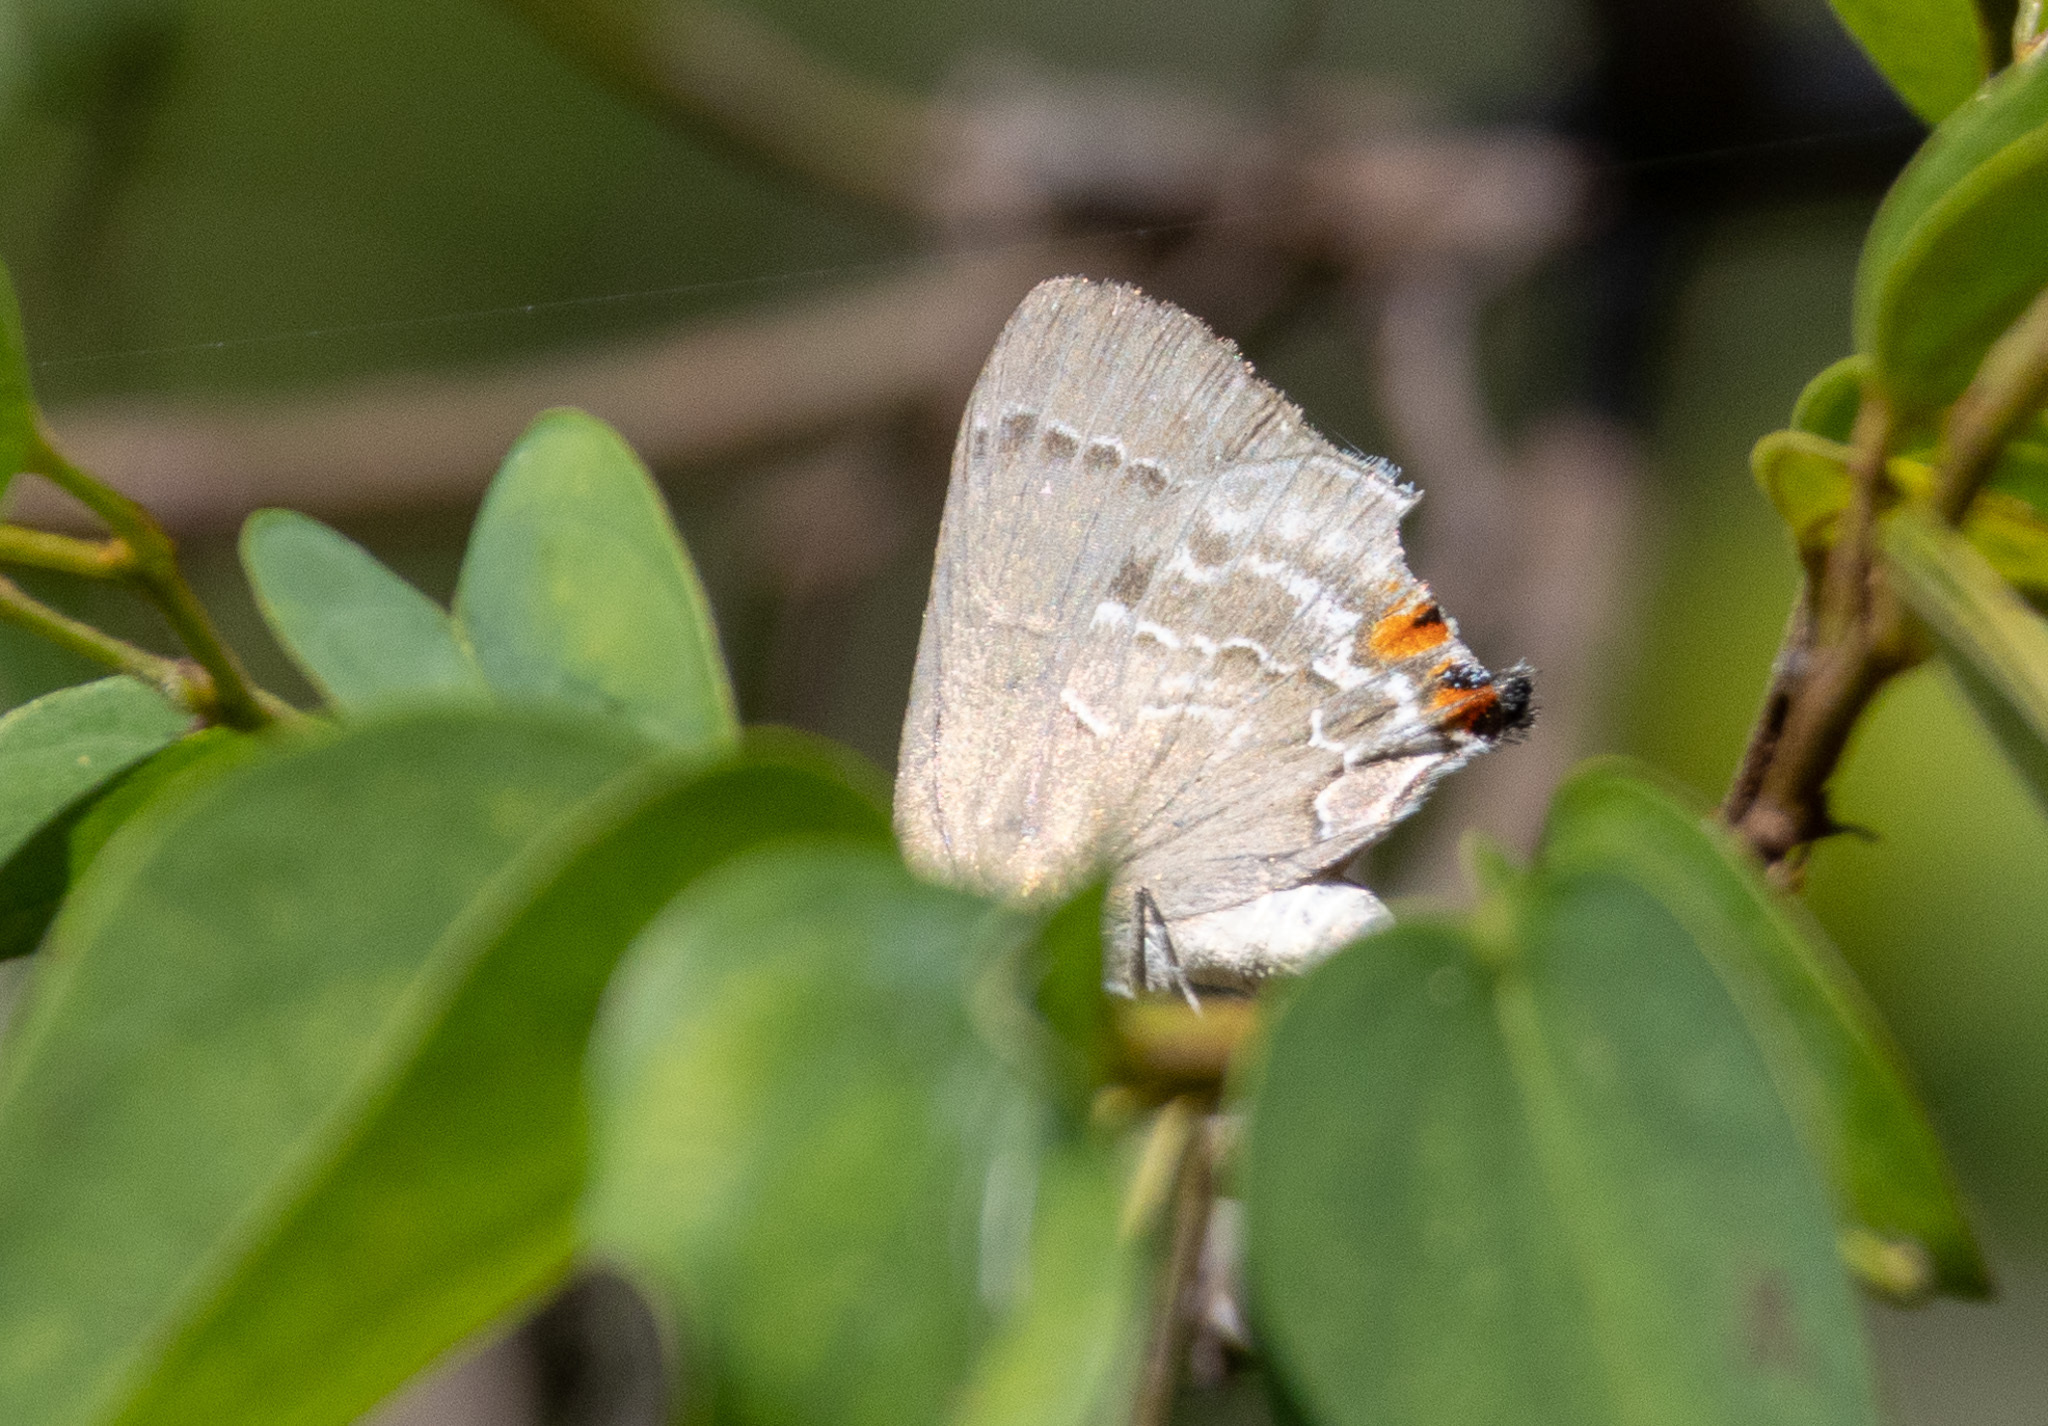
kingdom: Animalia
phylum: Arthropoda
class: Insecta
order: Lepidoptera
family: Lycaenidae
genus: Michaelus
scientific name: Michaelus hecate
